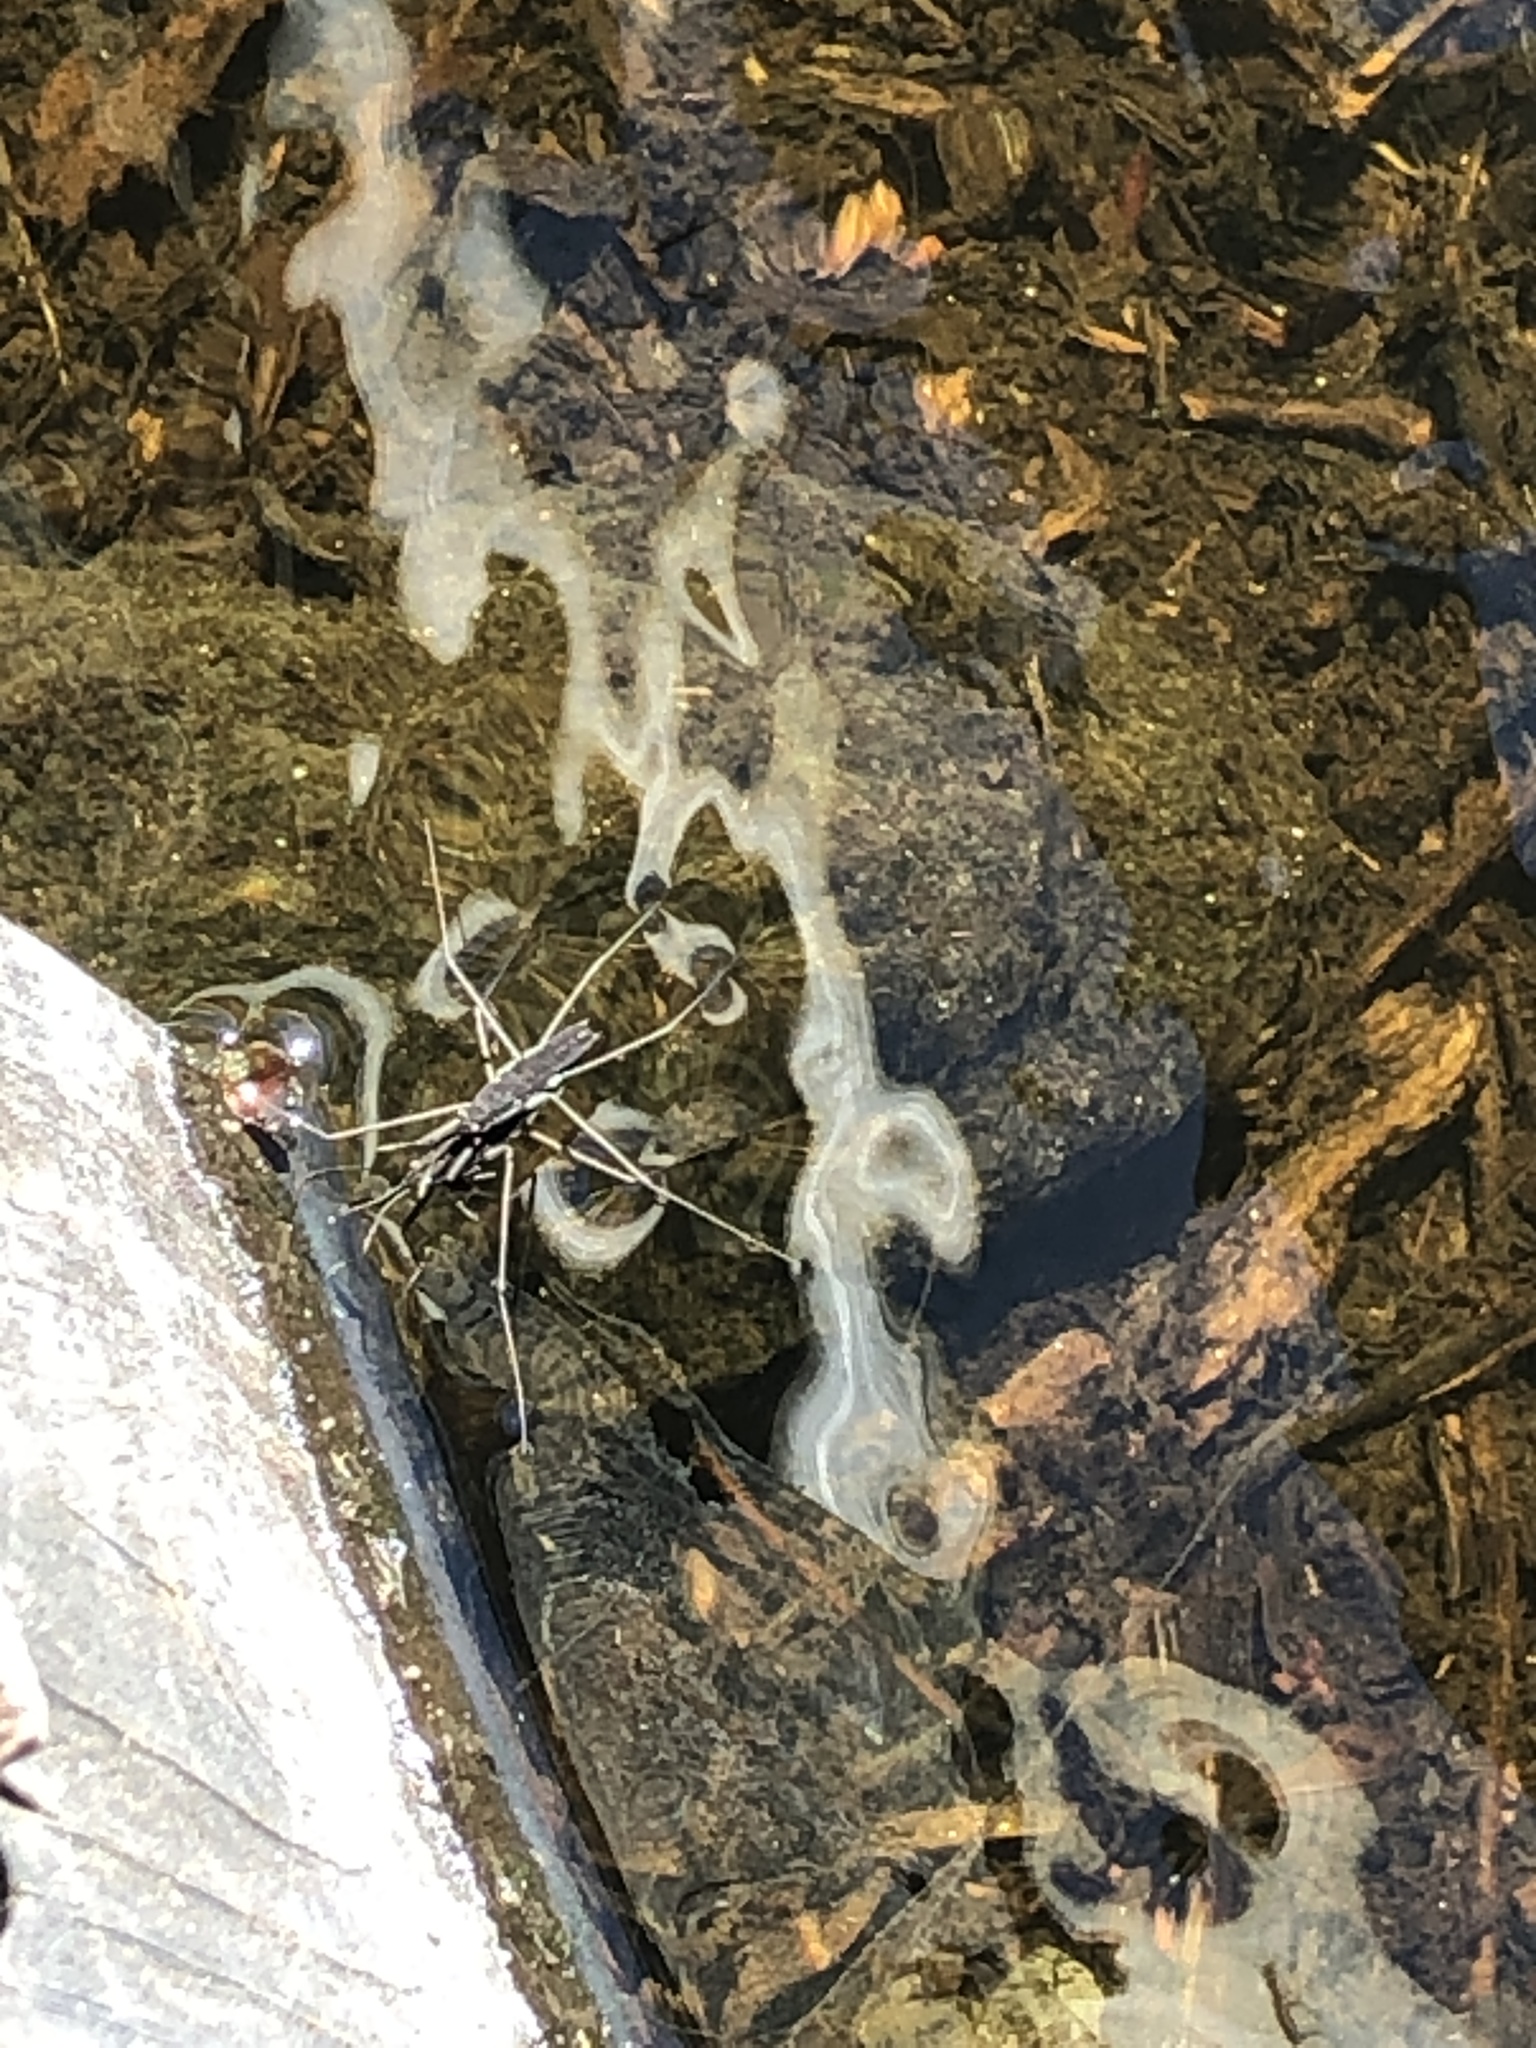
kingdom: Animalia
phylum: Arthropoda
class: Insecta
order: Hemiptera
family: Gerridae
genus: Aquarius
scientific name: Aquarius remigis
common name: Common water strider
